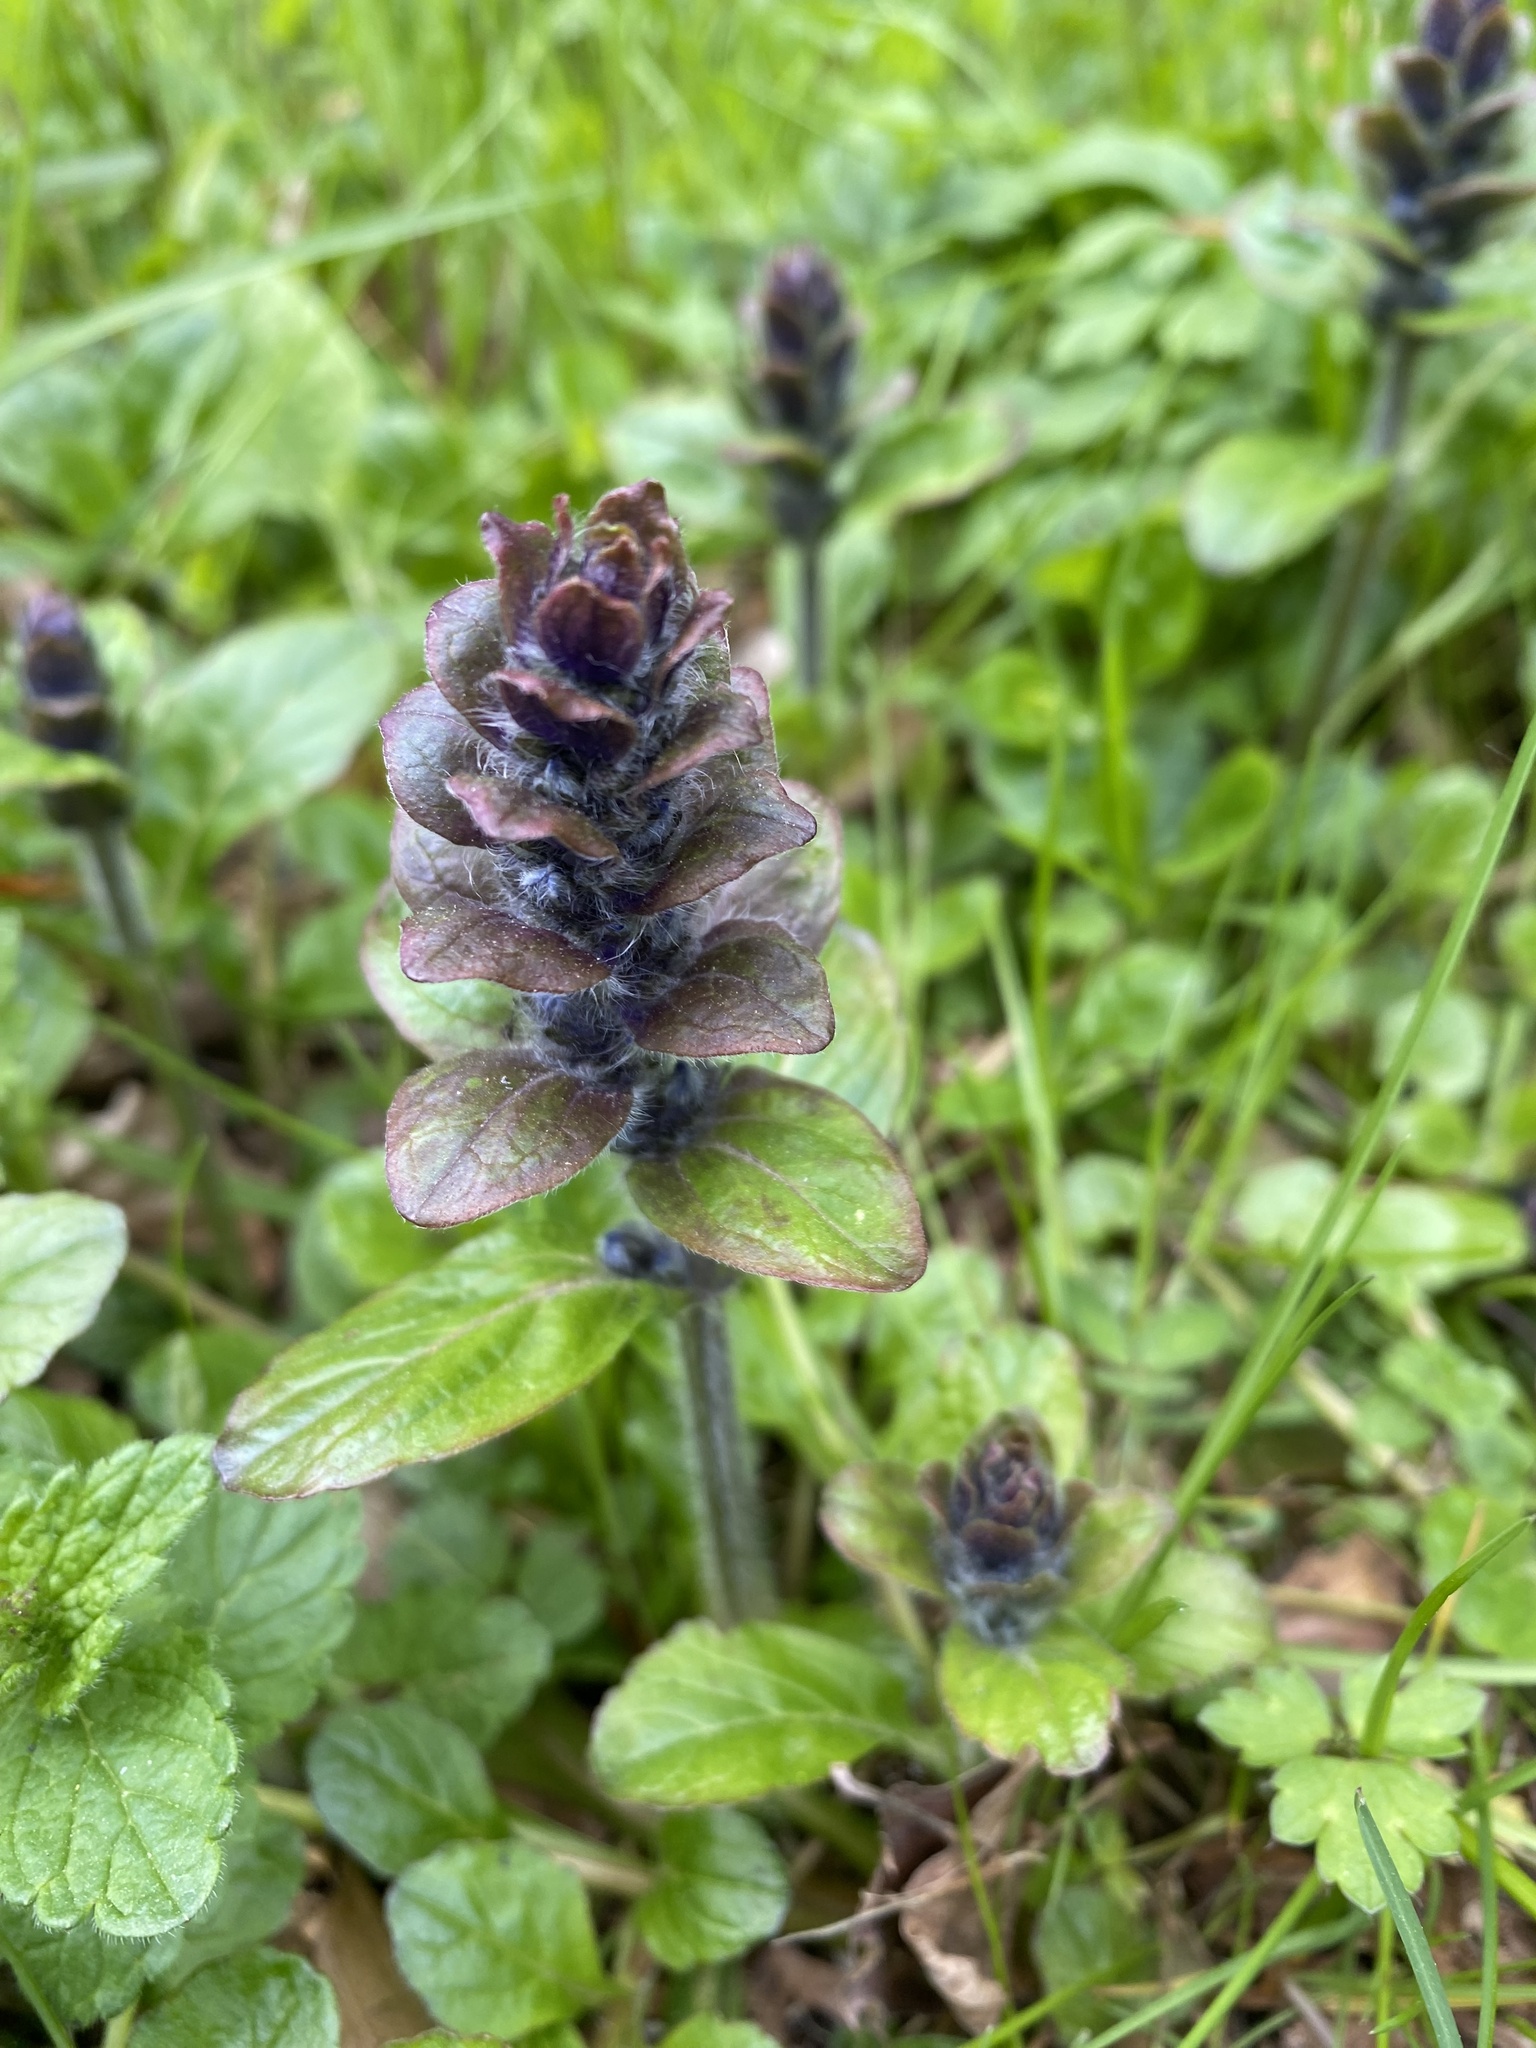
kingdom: Plantae
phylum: Tracheophyta
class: Magnoliopsida
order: Lamiales
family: Lamiaceae
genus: Ajuga
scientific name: Ajuga reptans
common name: Bugle
